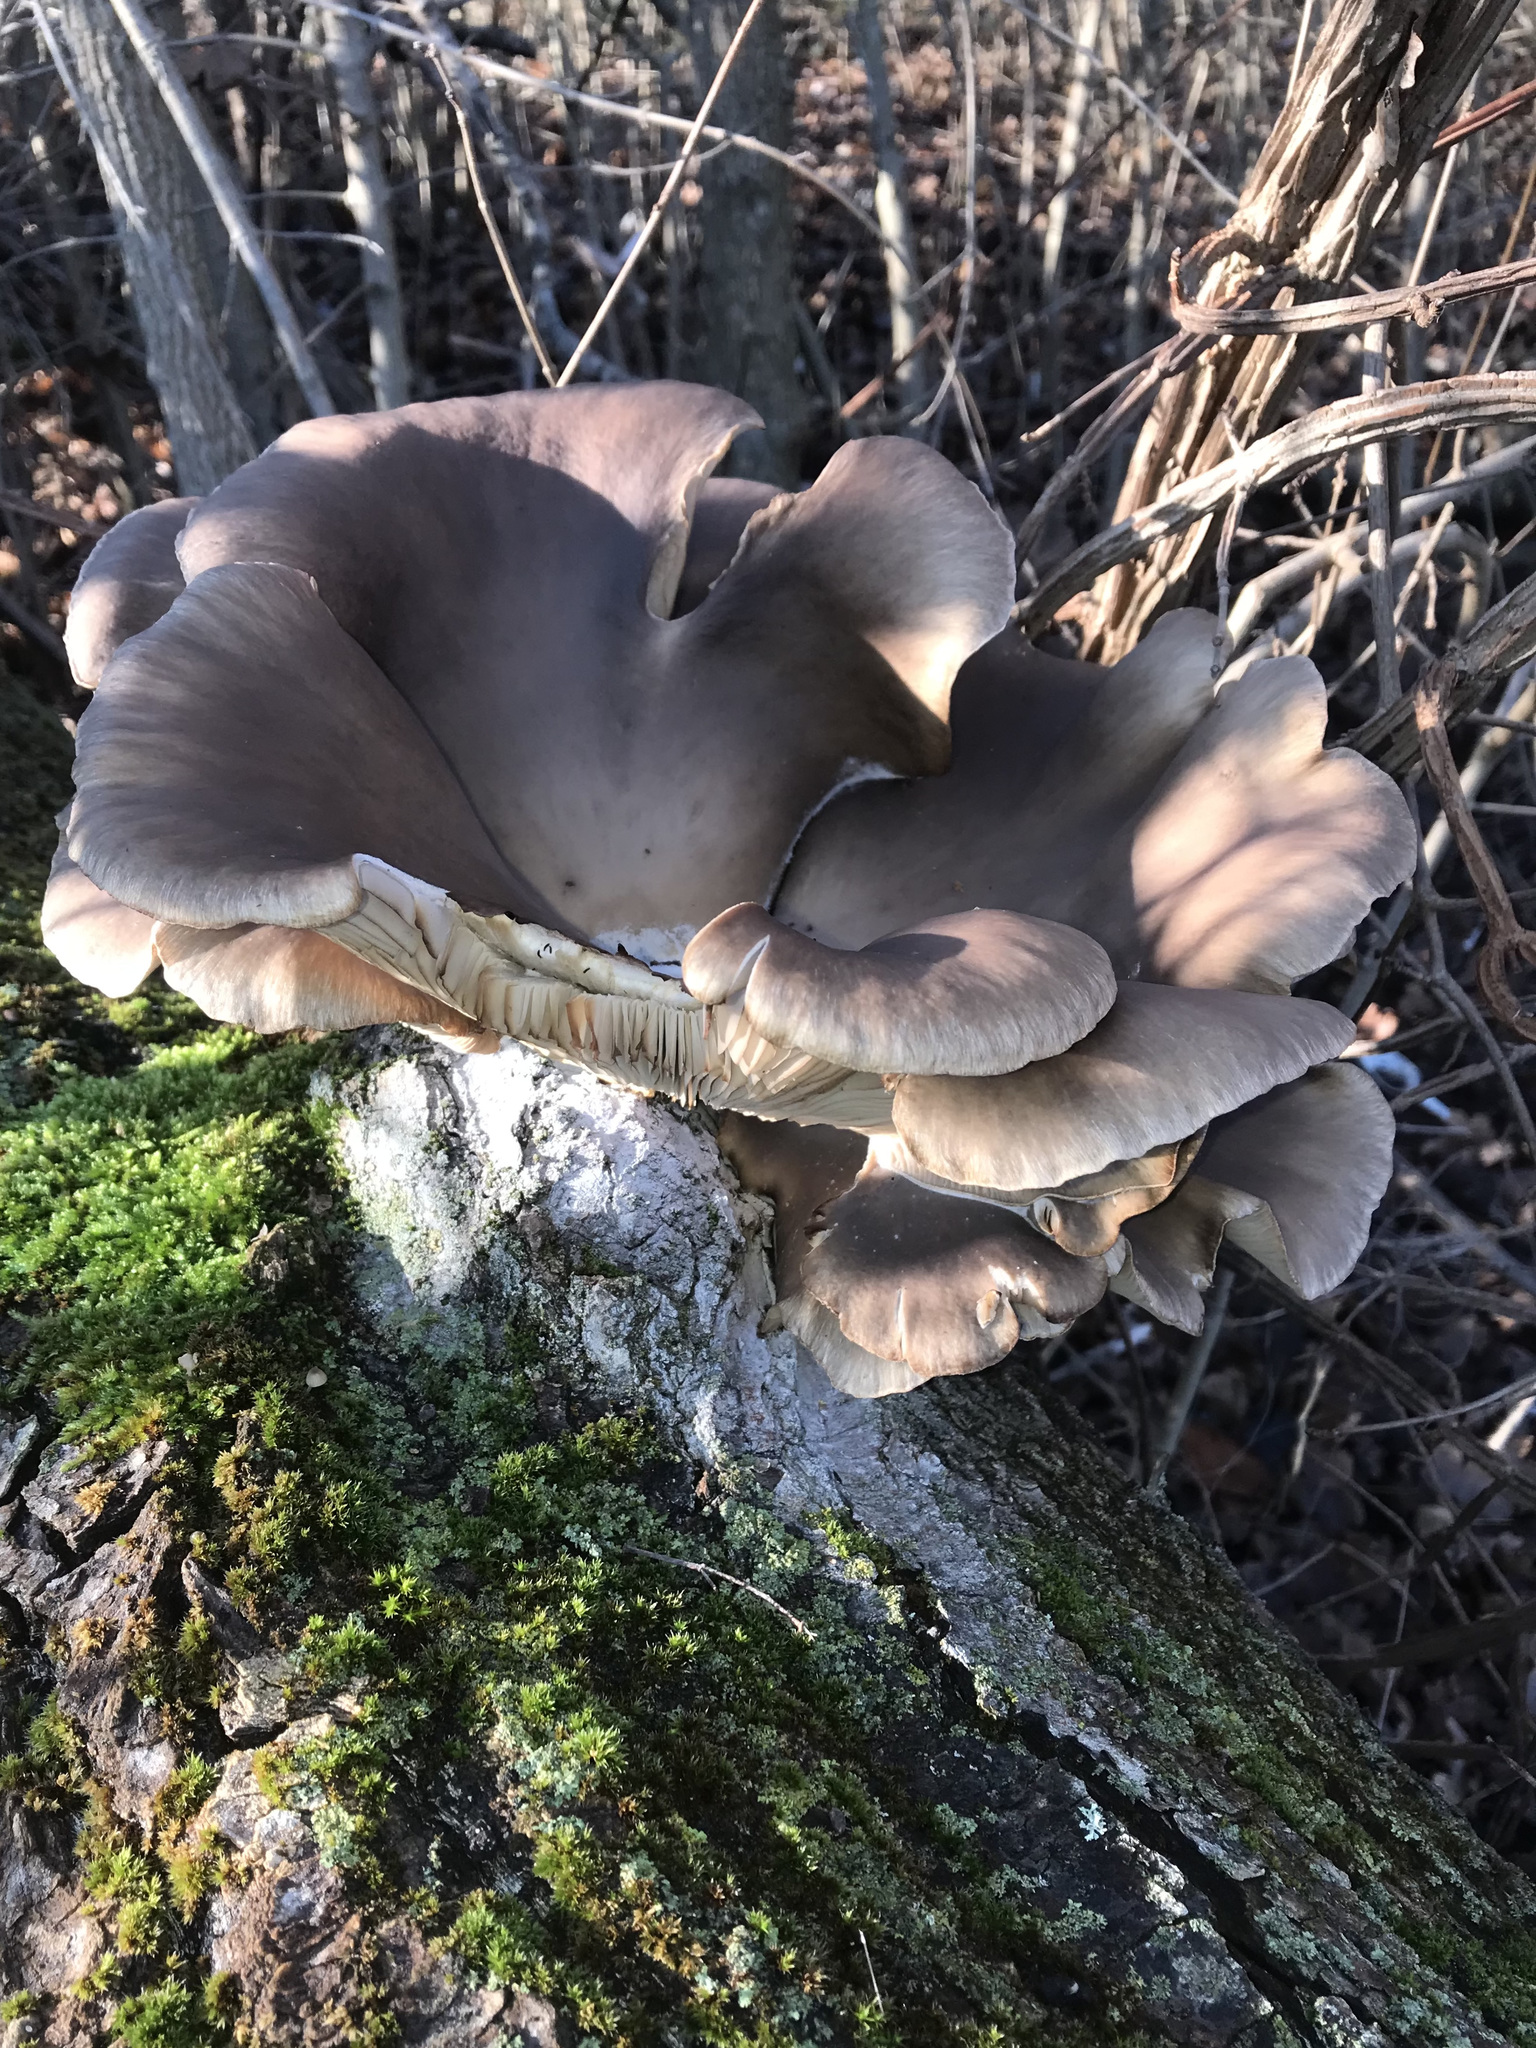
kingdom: Fungi
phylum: Basidiomycota
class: Agaricomycetes
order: Agaricales
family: Pleurotaceae
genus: Pleurotus
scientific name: Pleurotus ostreatus
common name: Oyster mushroom
